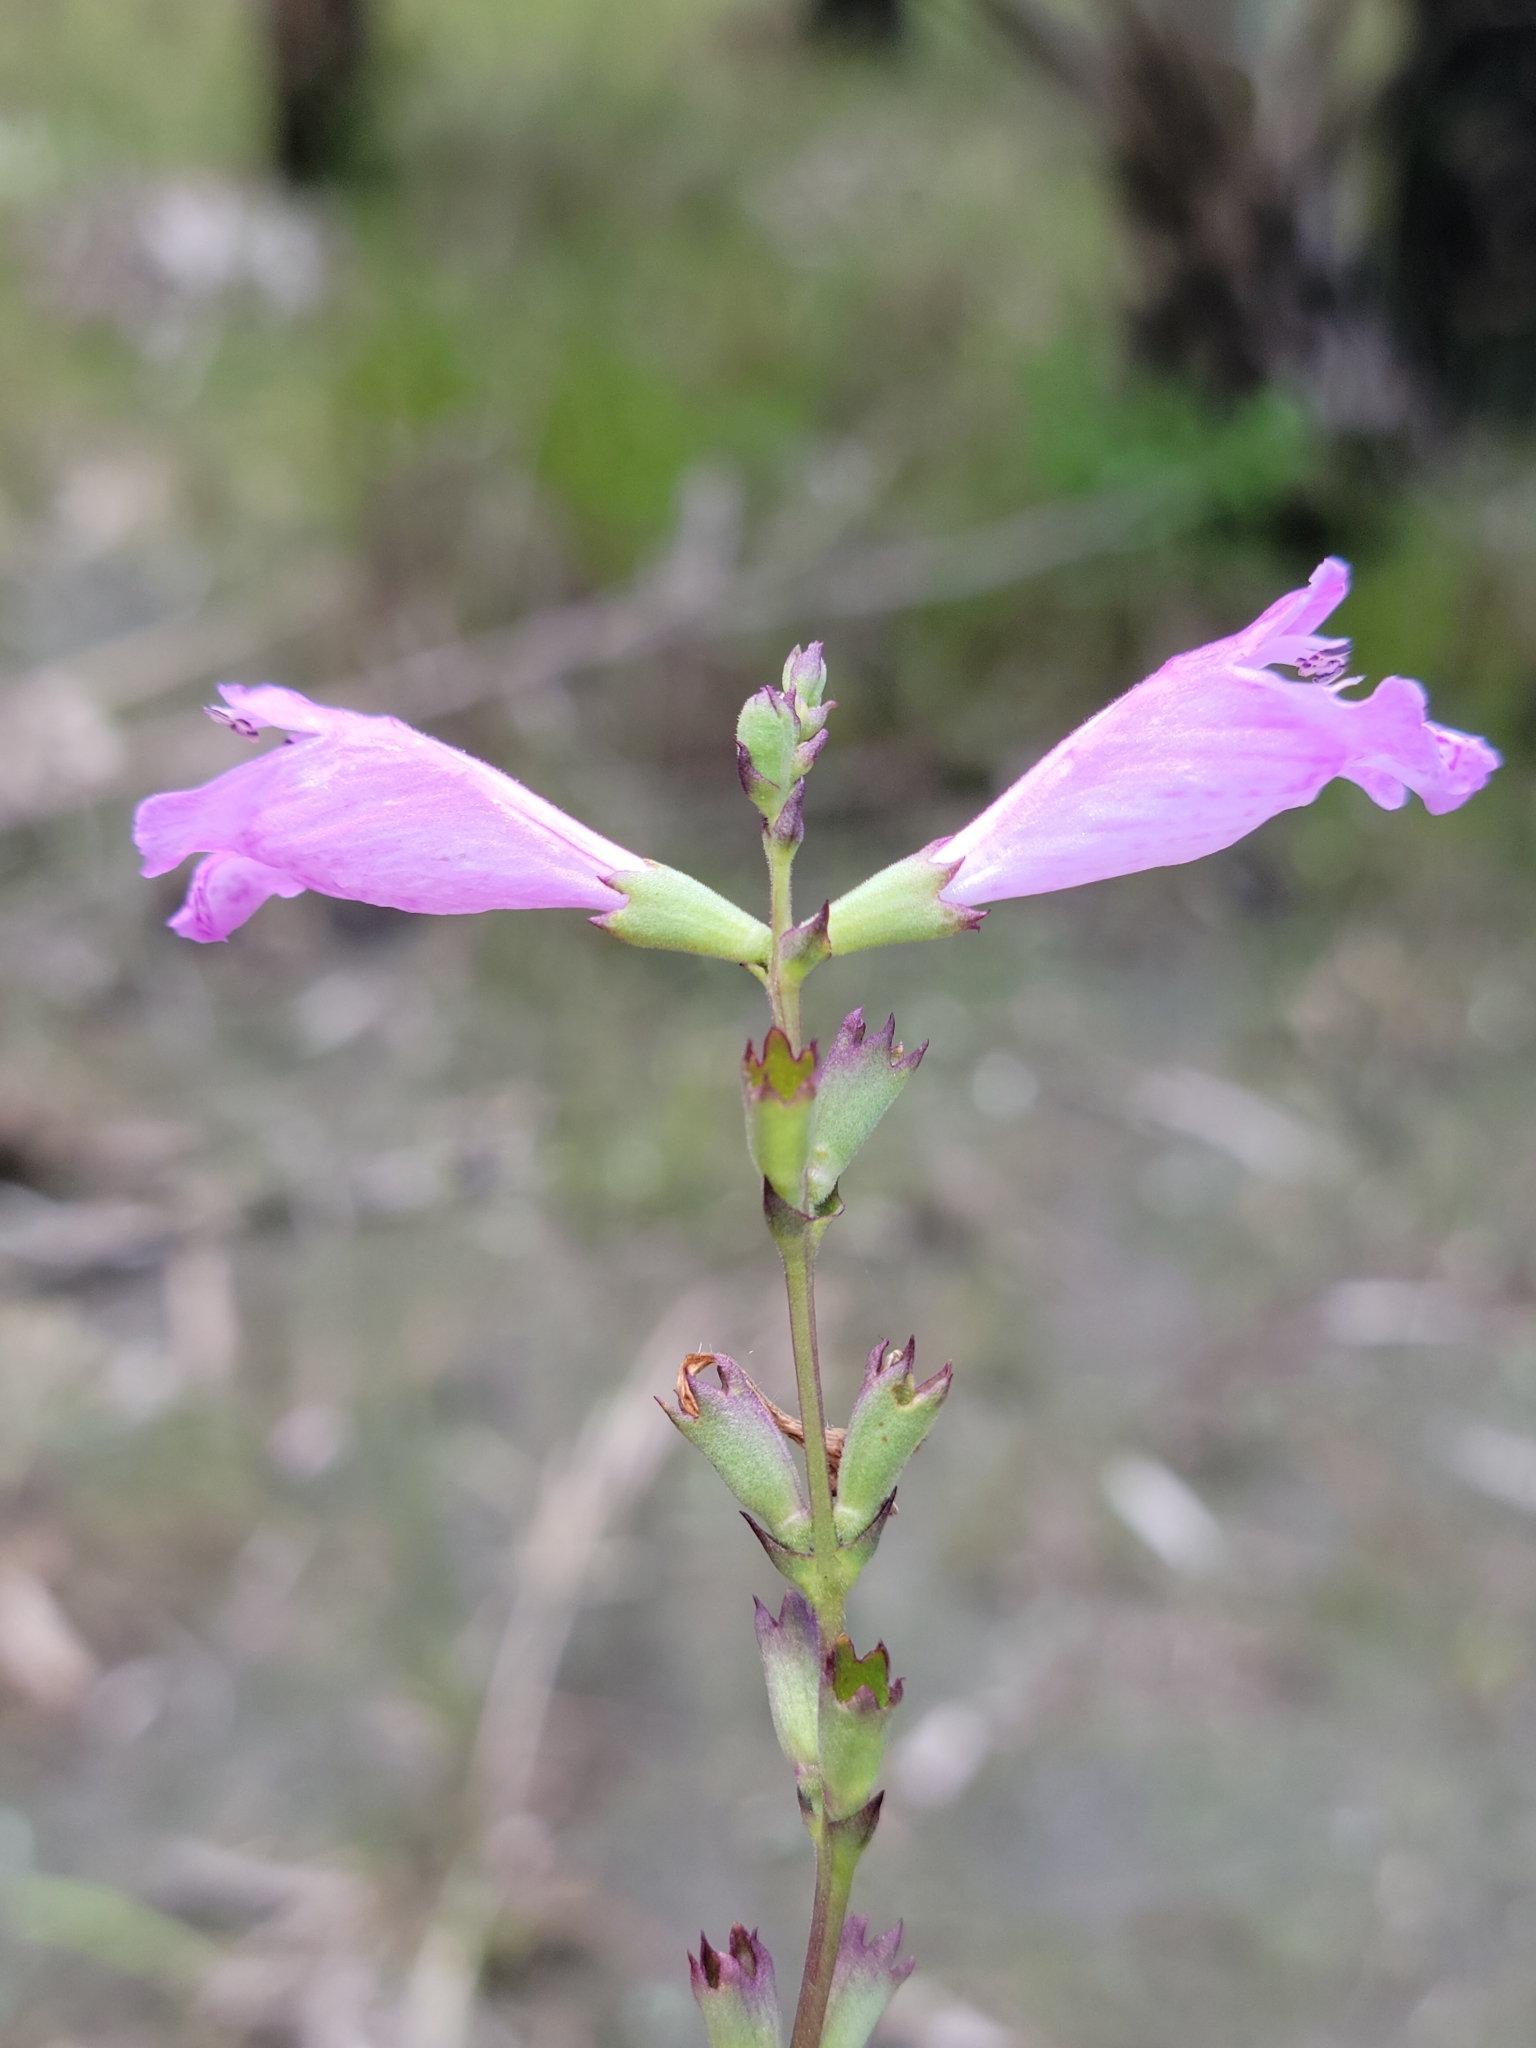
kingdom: Plantae
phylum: Tracheophyta
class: Magnoliopsida
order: Lamiales
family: Lamiaceae
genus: Physostegia
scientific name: Physostegia purpurea
